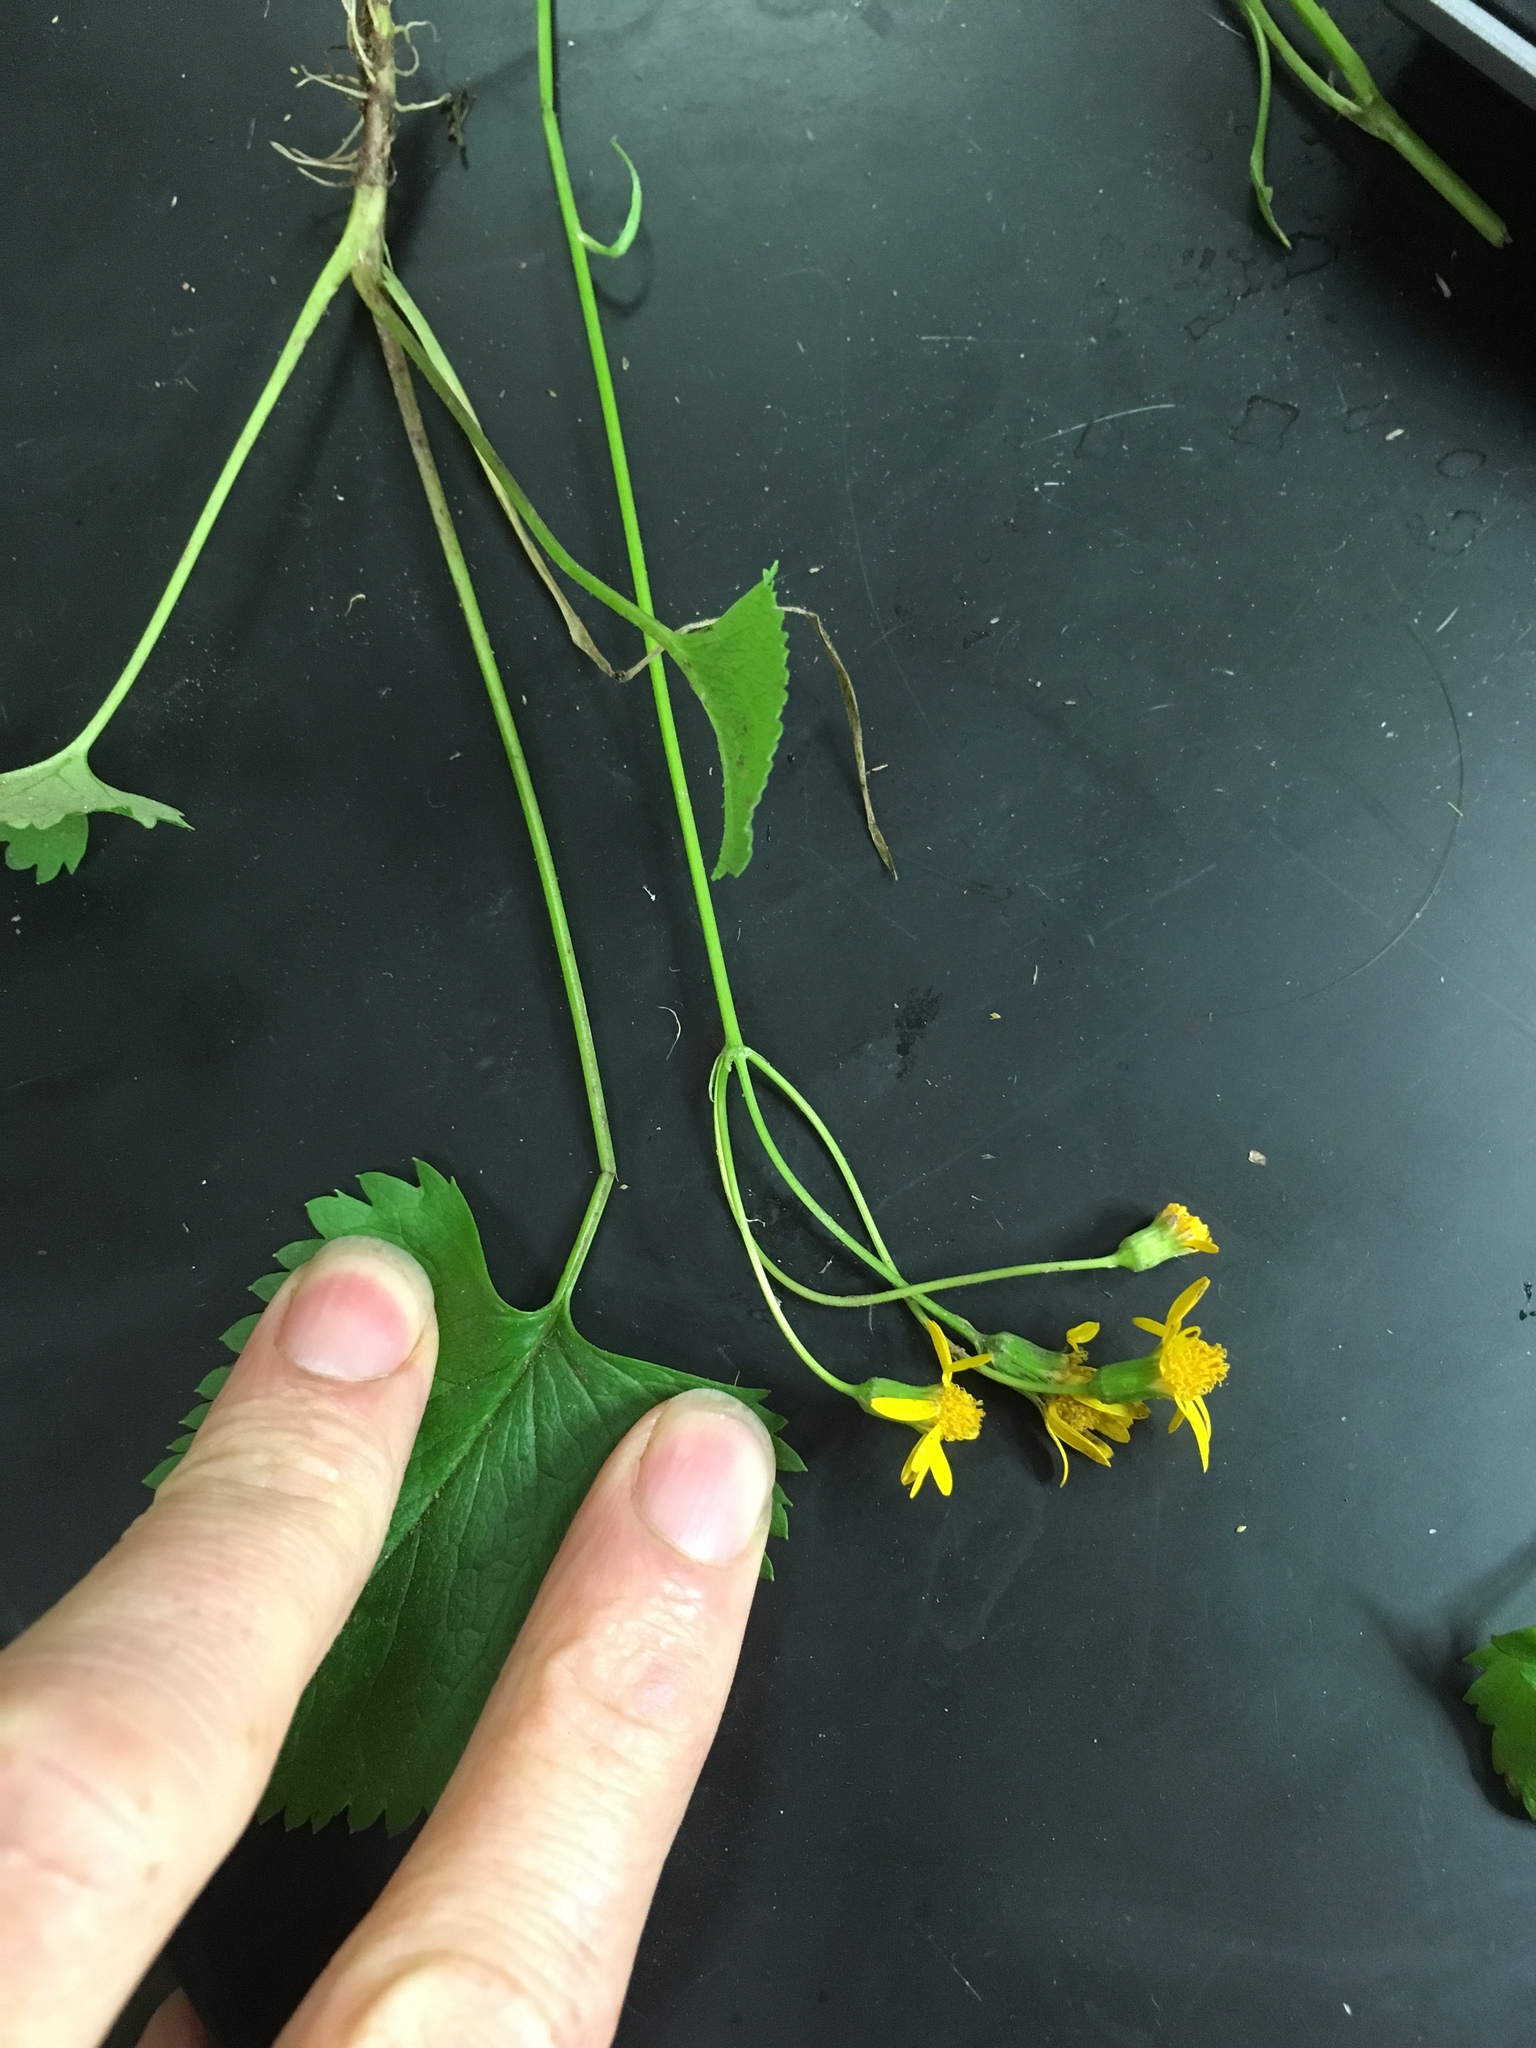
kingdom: Plantae
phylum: Tracheophyta
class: Magnoliopsida
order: Asterales
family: Asteraceae
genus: Packera
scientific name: Packera aurea
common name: Golden groundsel
